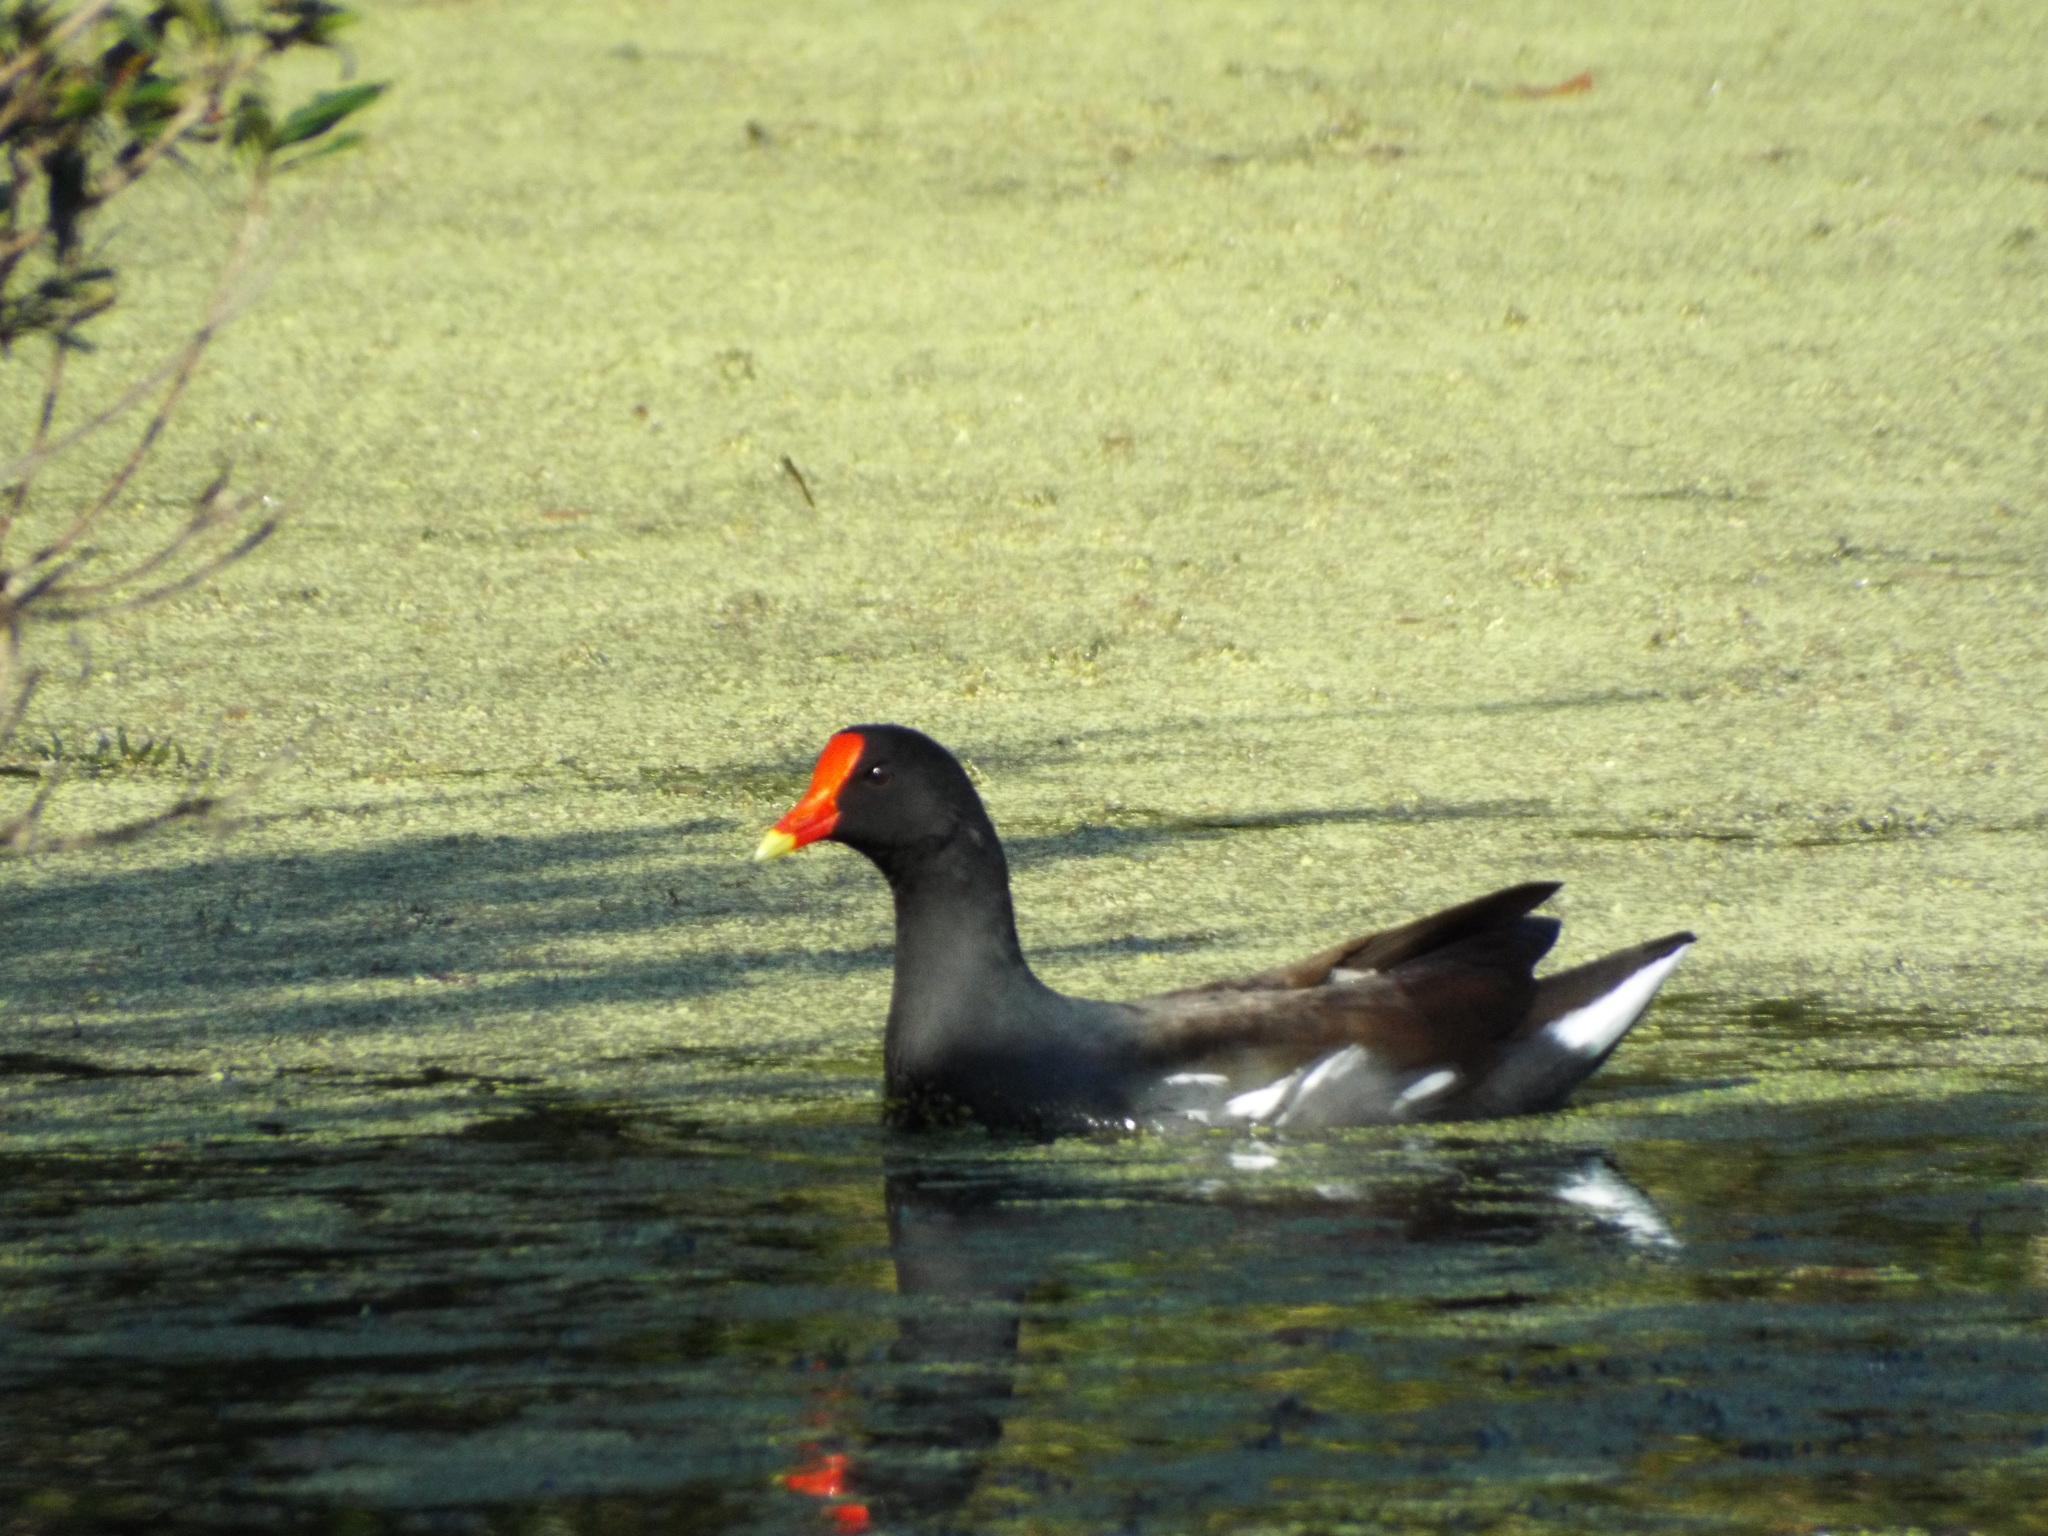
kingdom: Animalia
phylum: Chordata
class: Aves
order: Gruiformes
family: Rallidae
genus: Gallinula
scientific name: Gallinula chloropus
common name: Common moorhen
